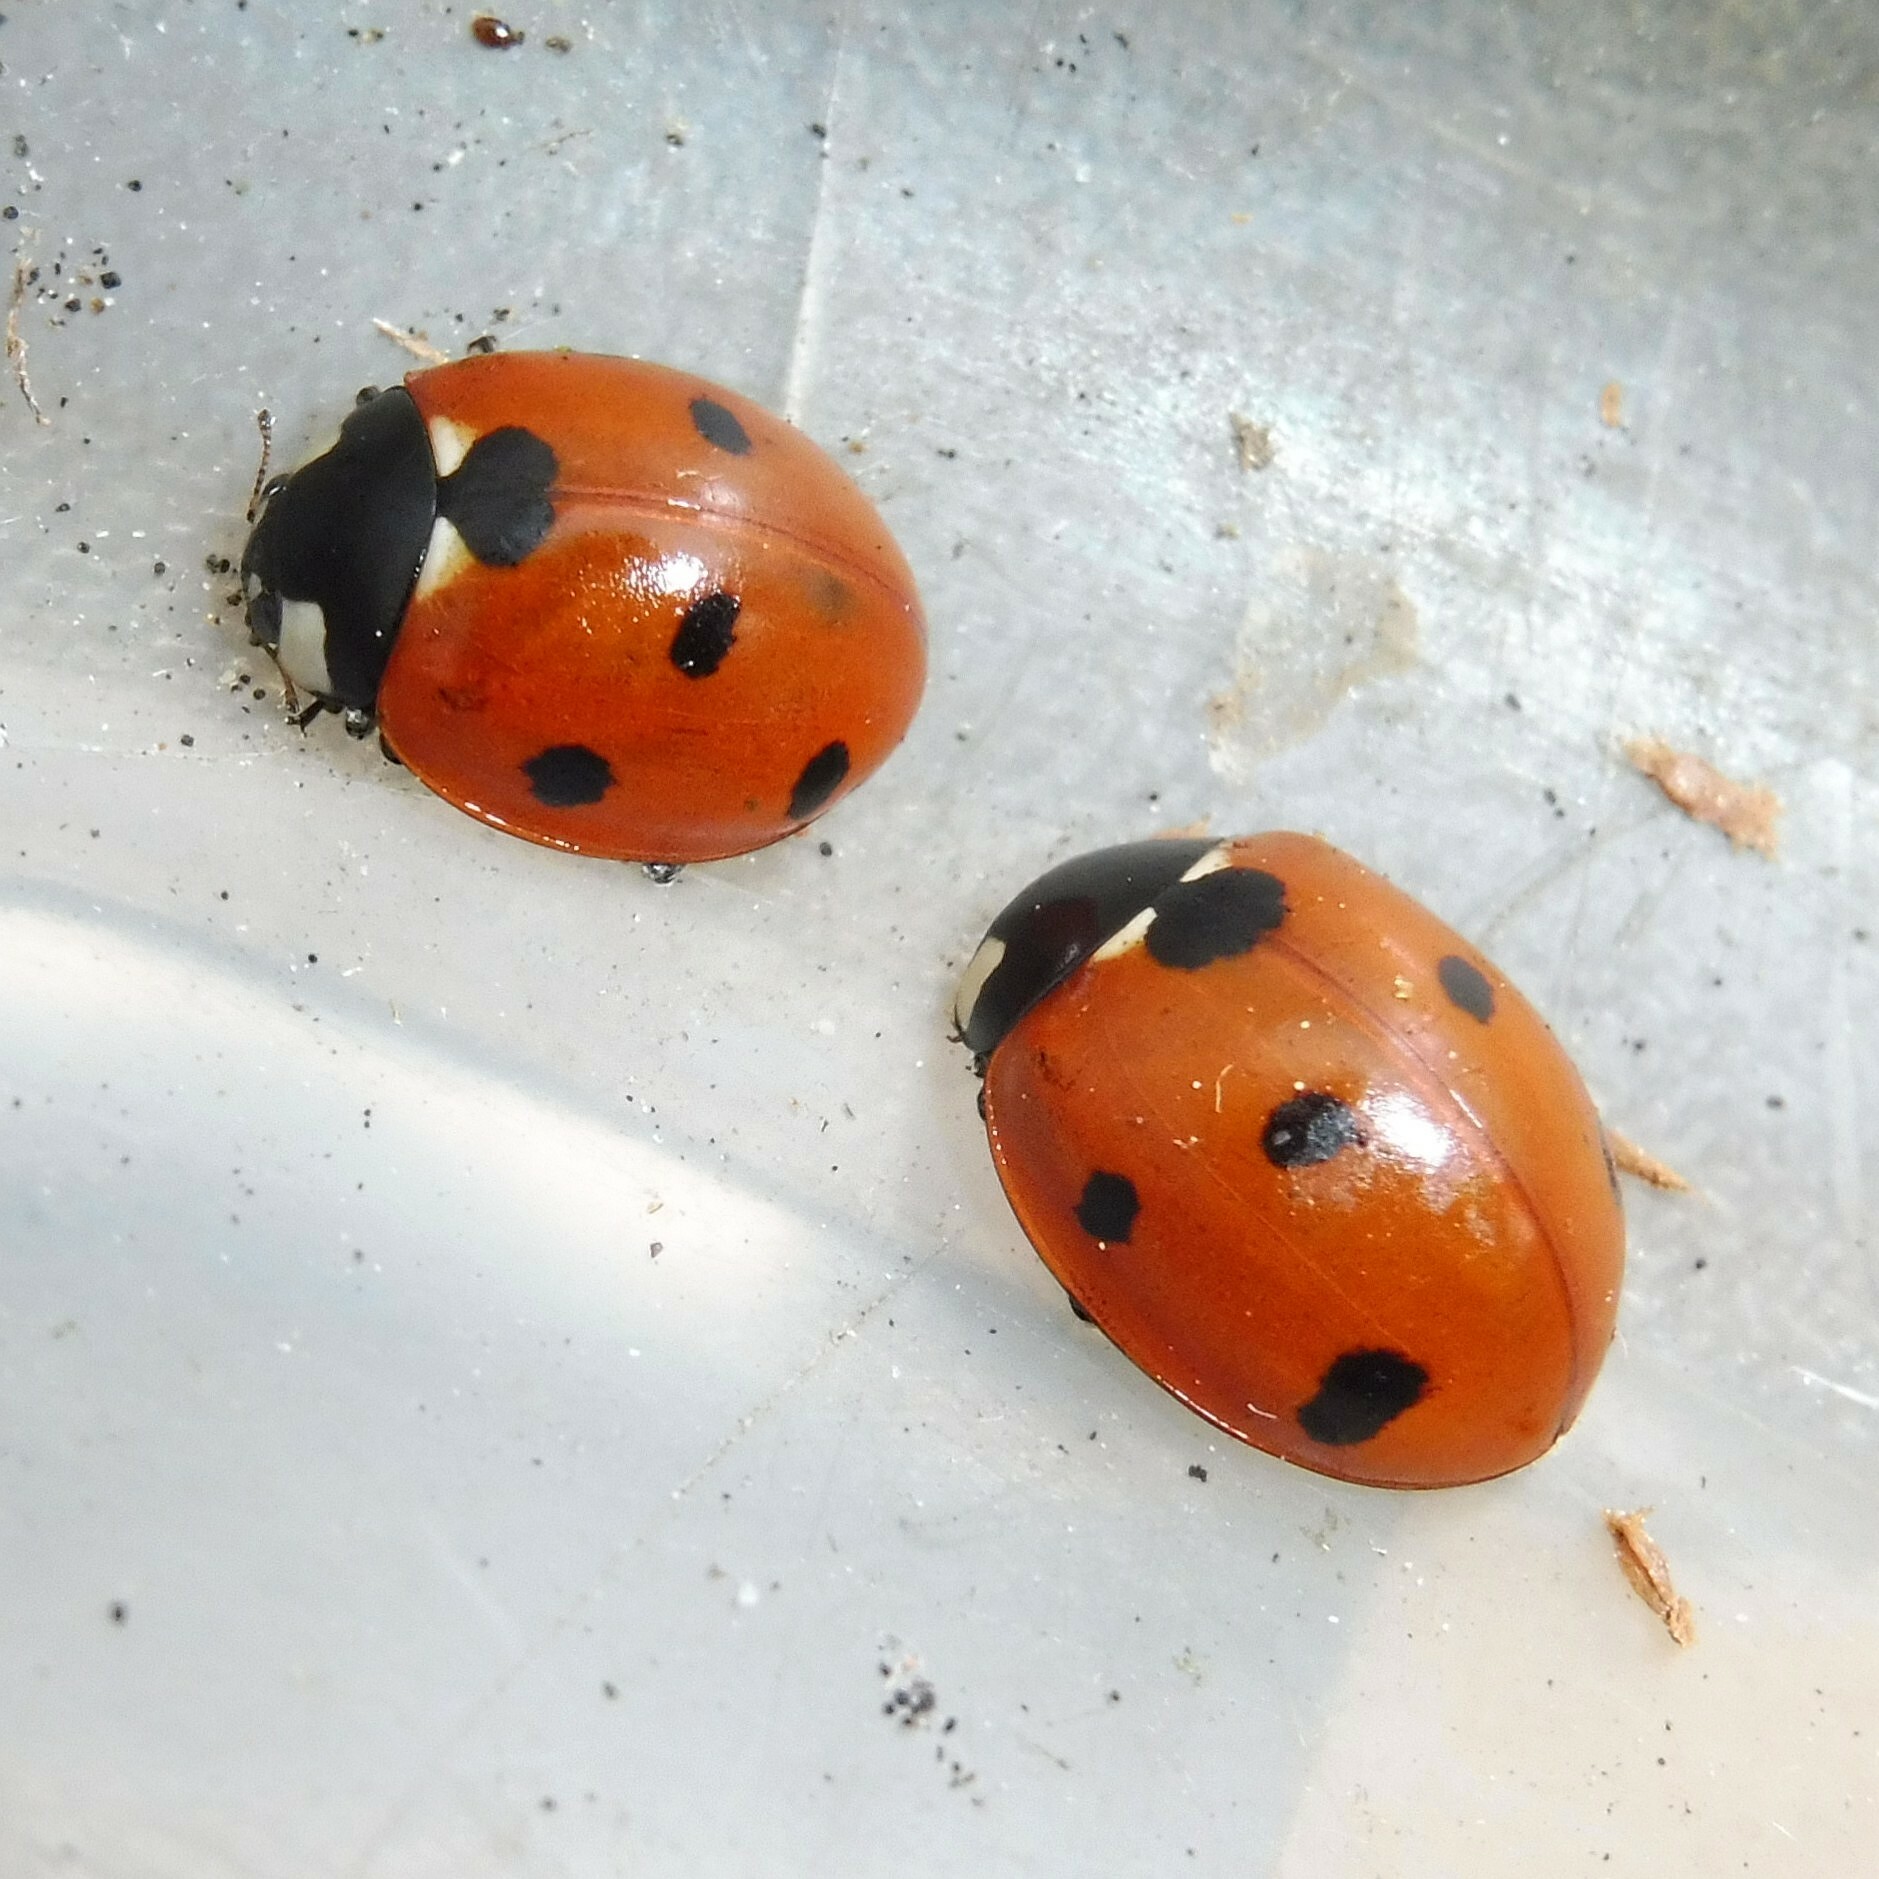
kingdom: Animalia
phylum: Arthropoda
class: Insecta
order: Coleoptera
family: Coccinellidae
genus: Coccinella
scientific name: Coccinella septempunctata
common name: Sevenspotted lady beetle
